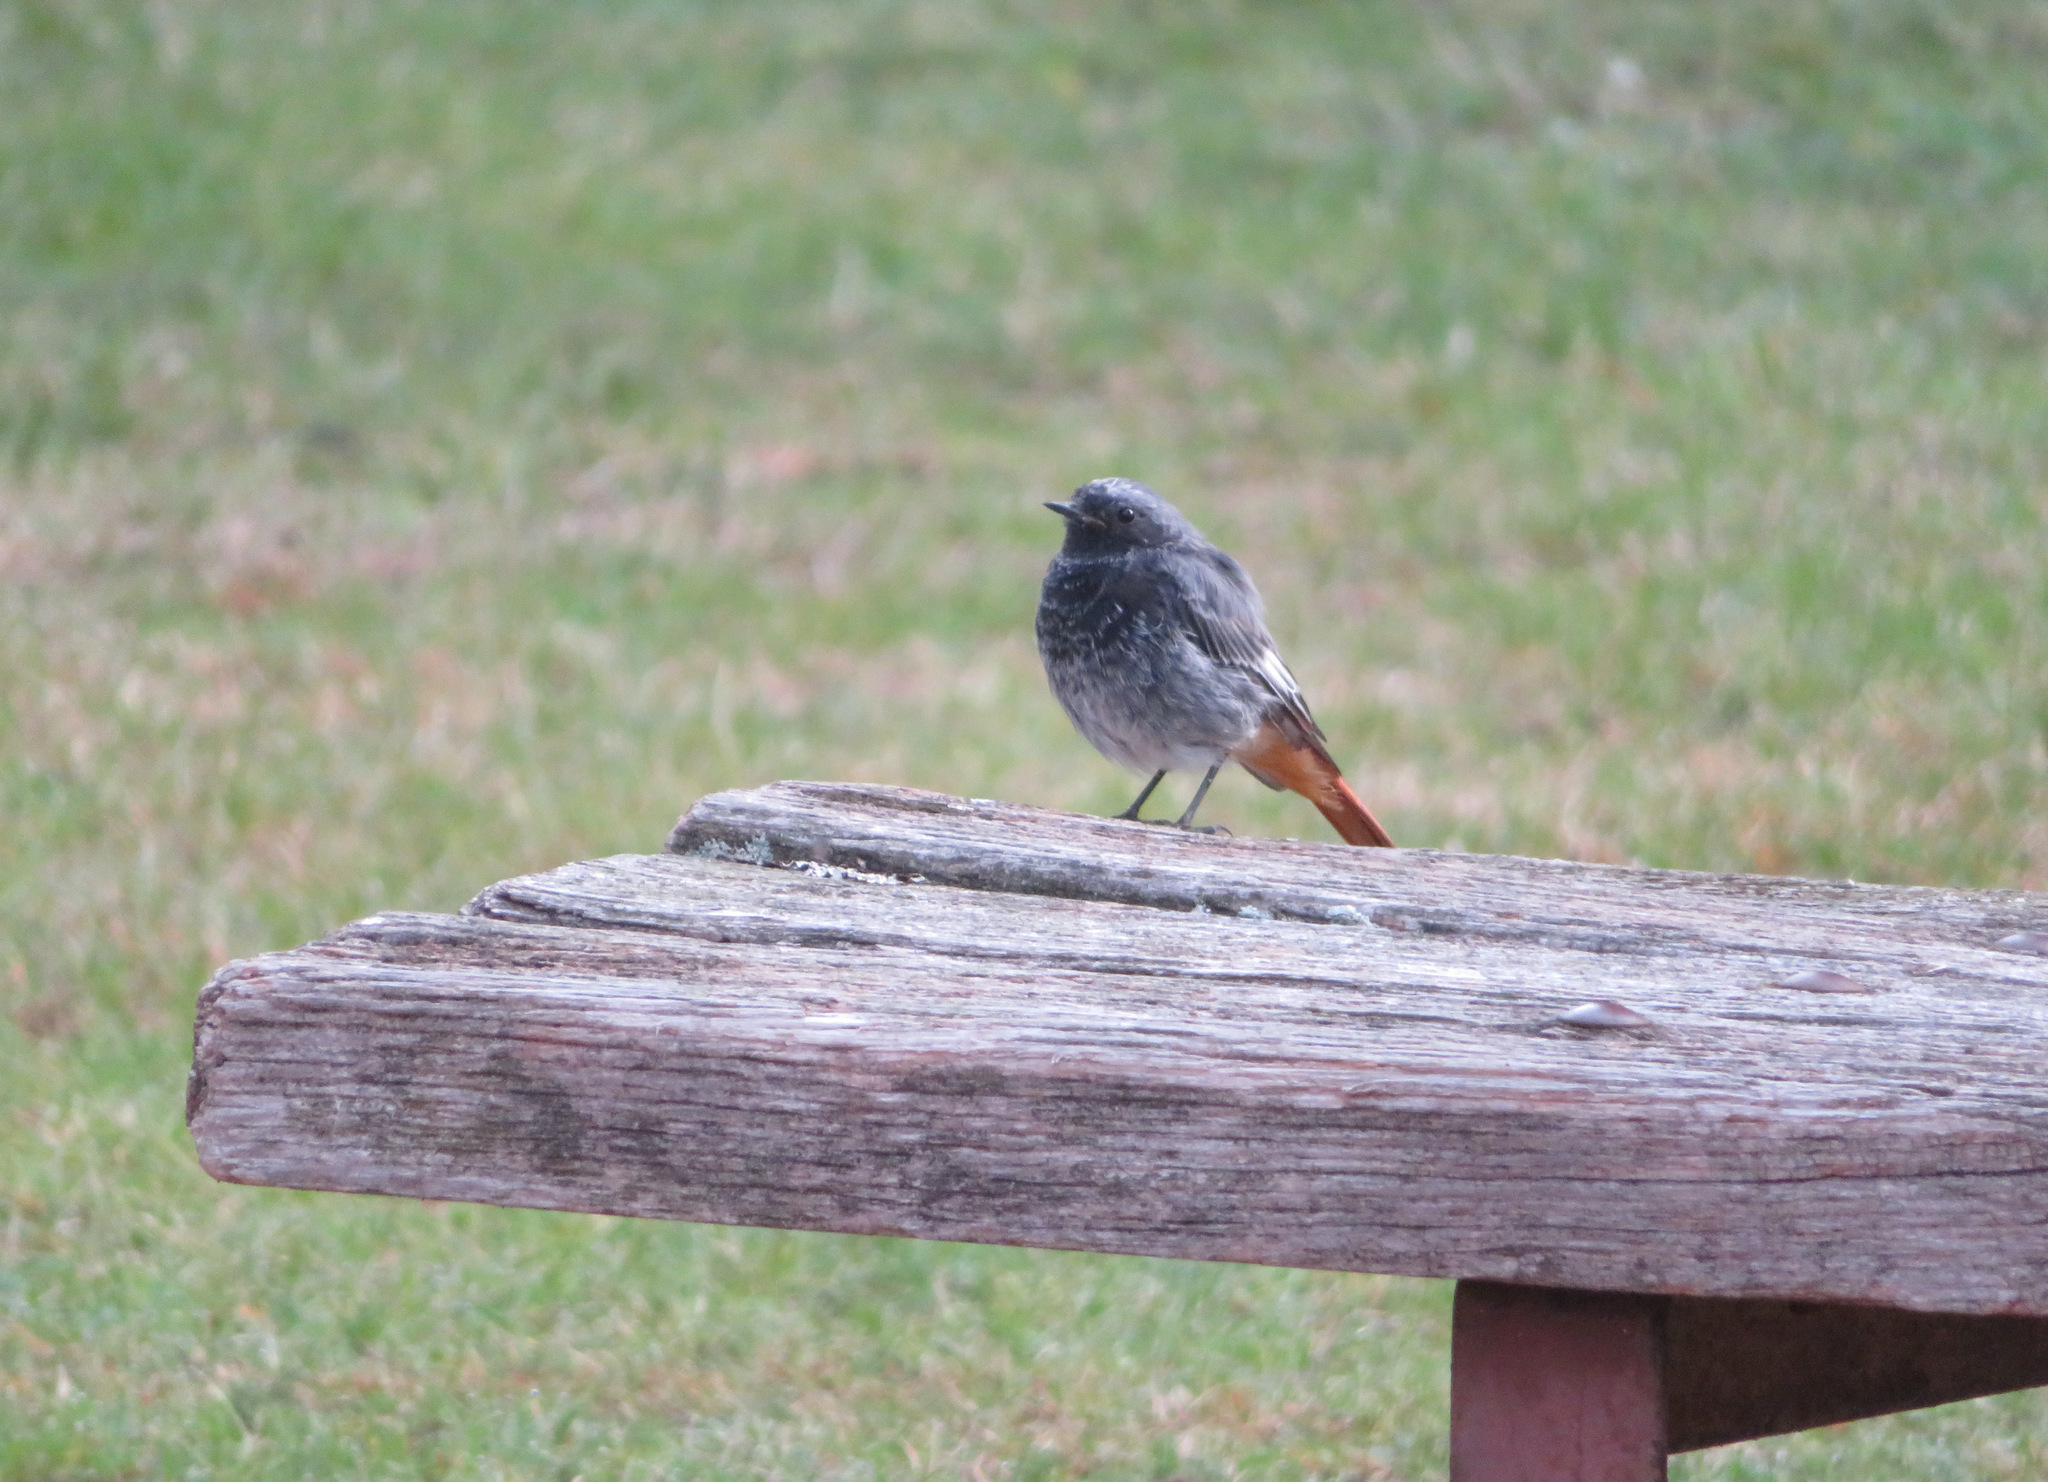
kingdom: Animalia
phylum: Chordata
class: Aves
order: Passeriformes
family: Muscicapidae
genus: Phoenicurus
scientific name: Phoenicurus ochruros
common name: Black redstart
